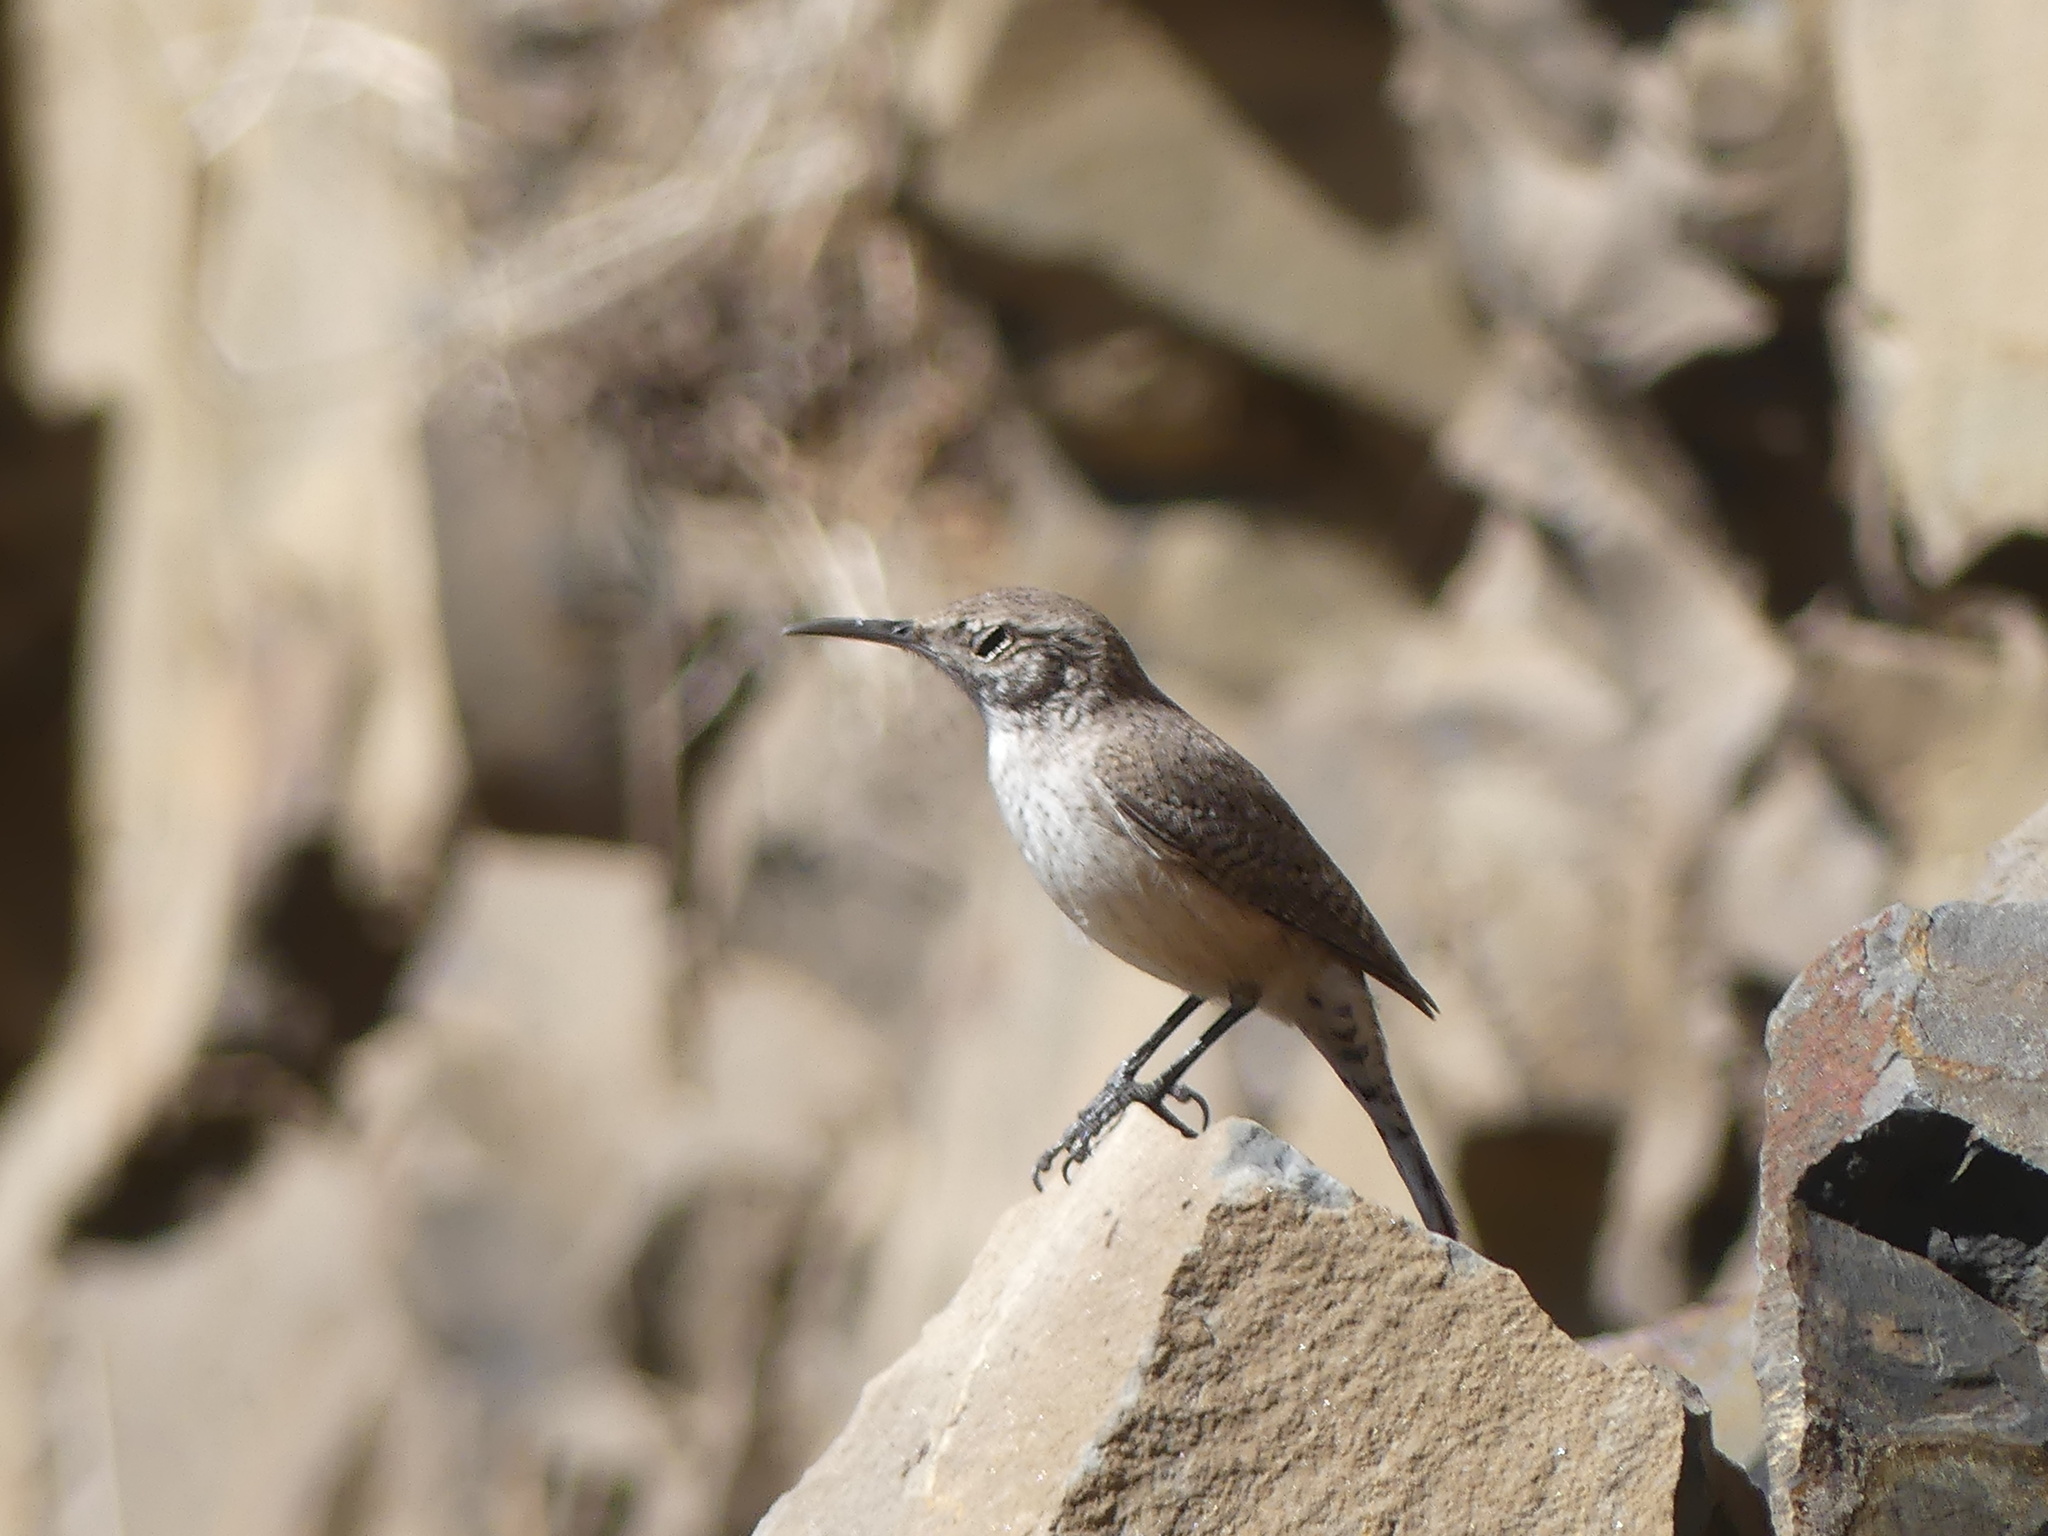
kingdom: Animalia
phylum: Chordata
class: Aves
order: Passeriformes
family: Troglodytidae
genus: Salpinctes
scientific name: Salpinctes obsoletus
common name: Rock wren
